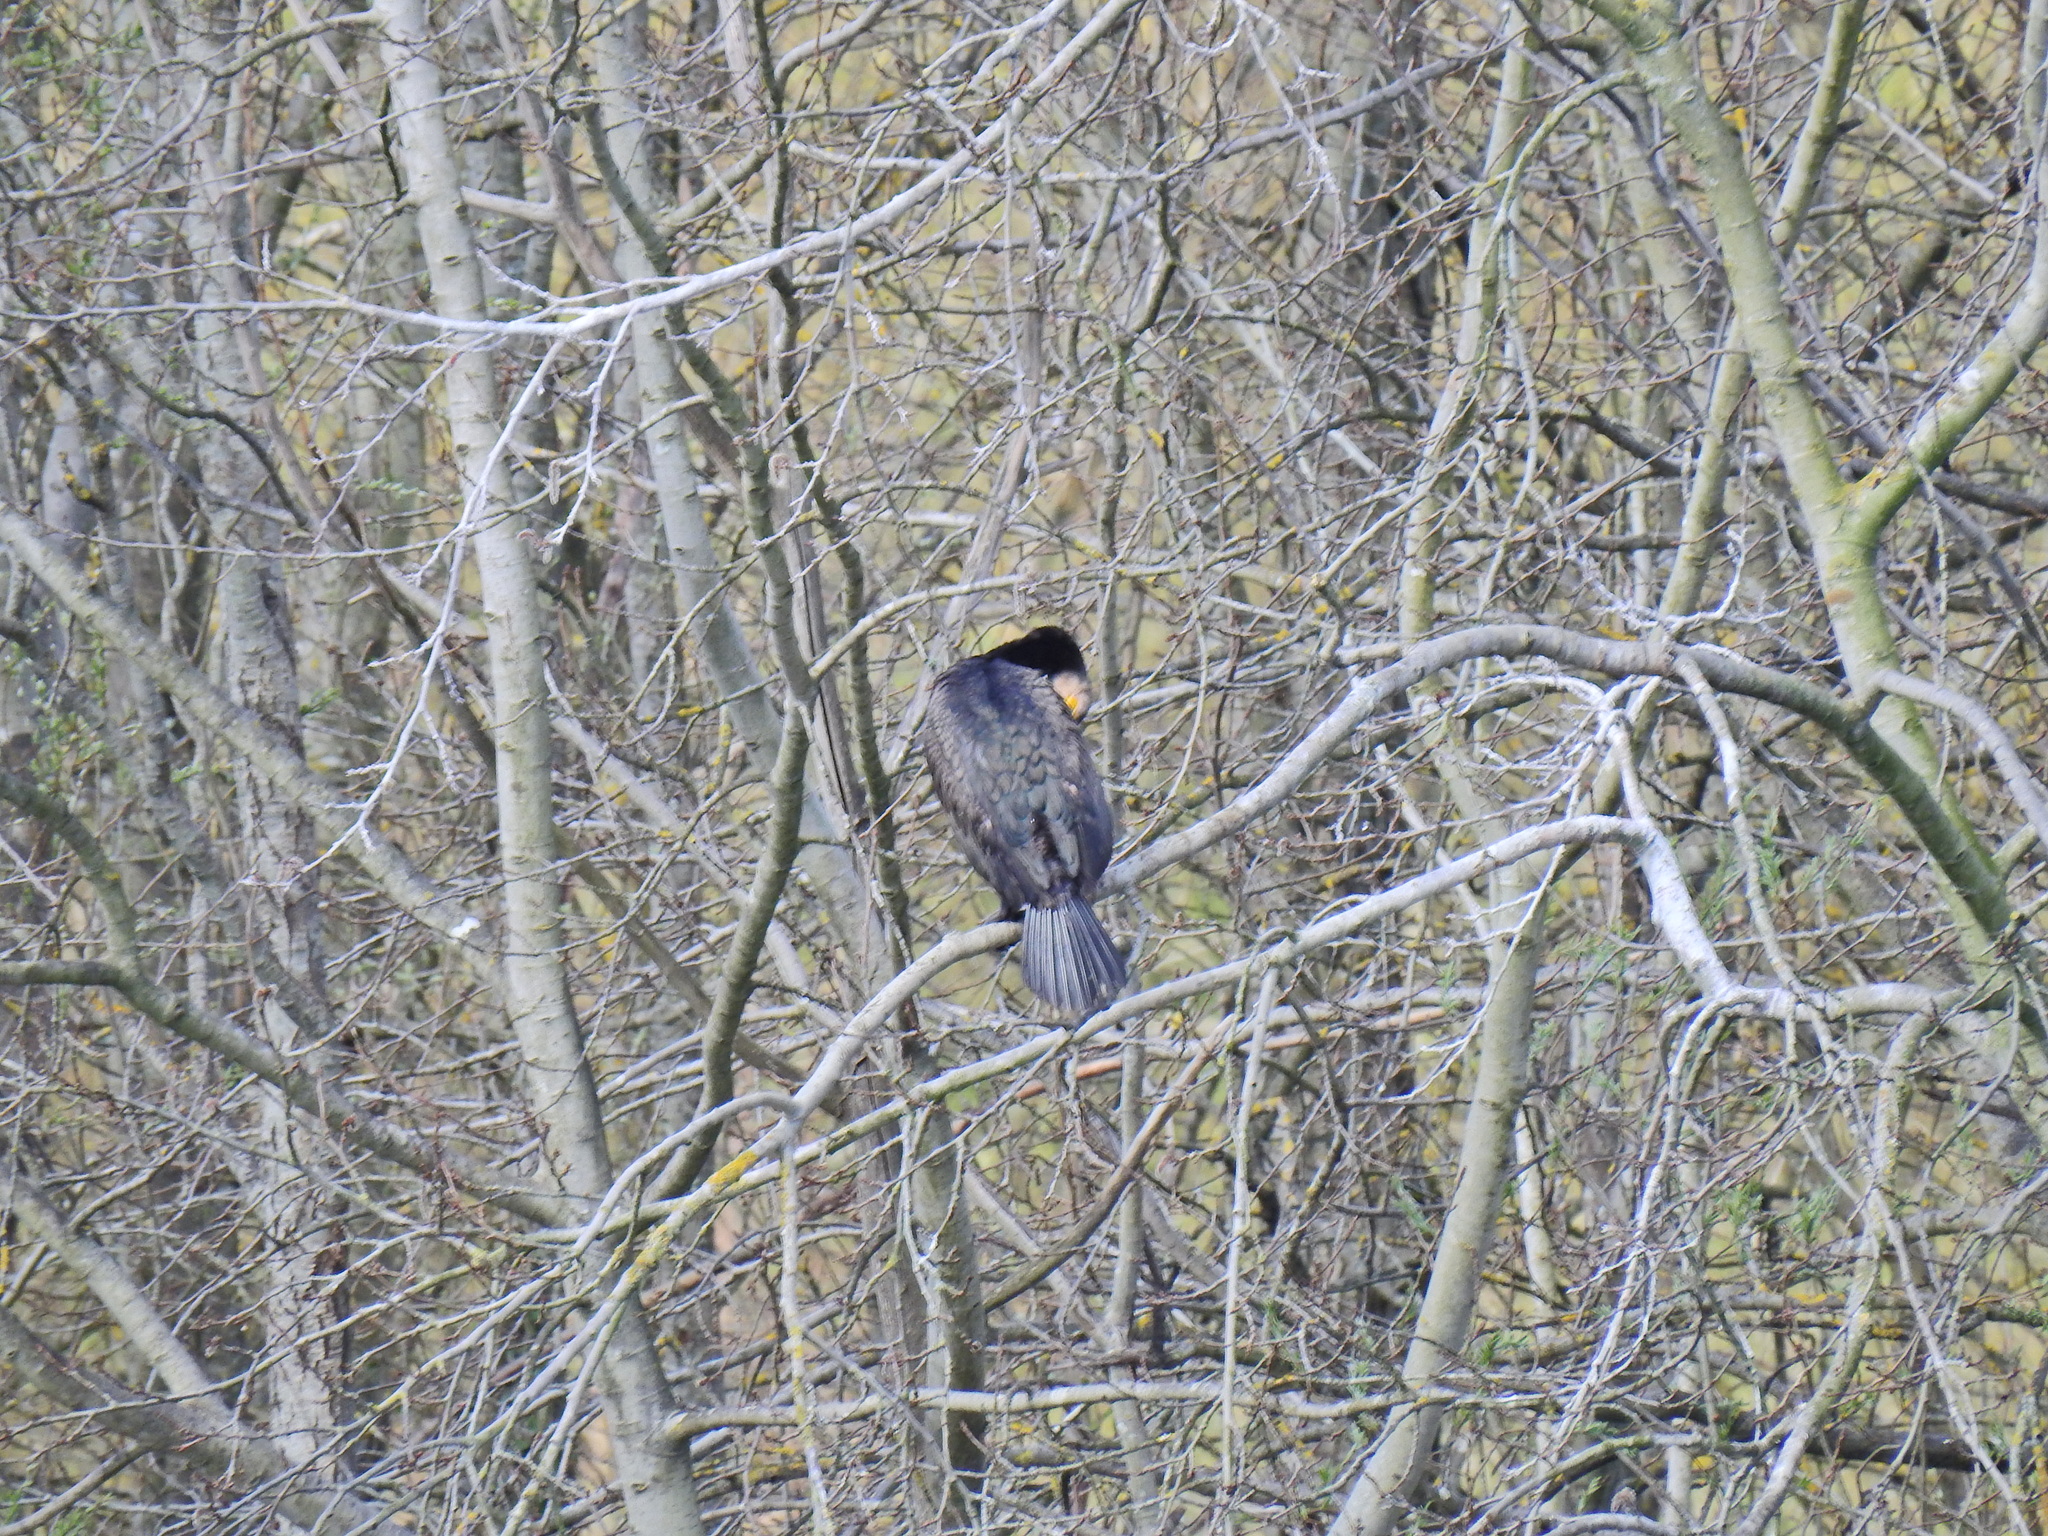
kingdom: Animalia
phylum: Chordata
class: Aves
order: Suliformes
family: Phalacrocoracidae
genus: Phalacrocorax
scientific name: Phalacrocorax carbo
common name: Great cormorant
